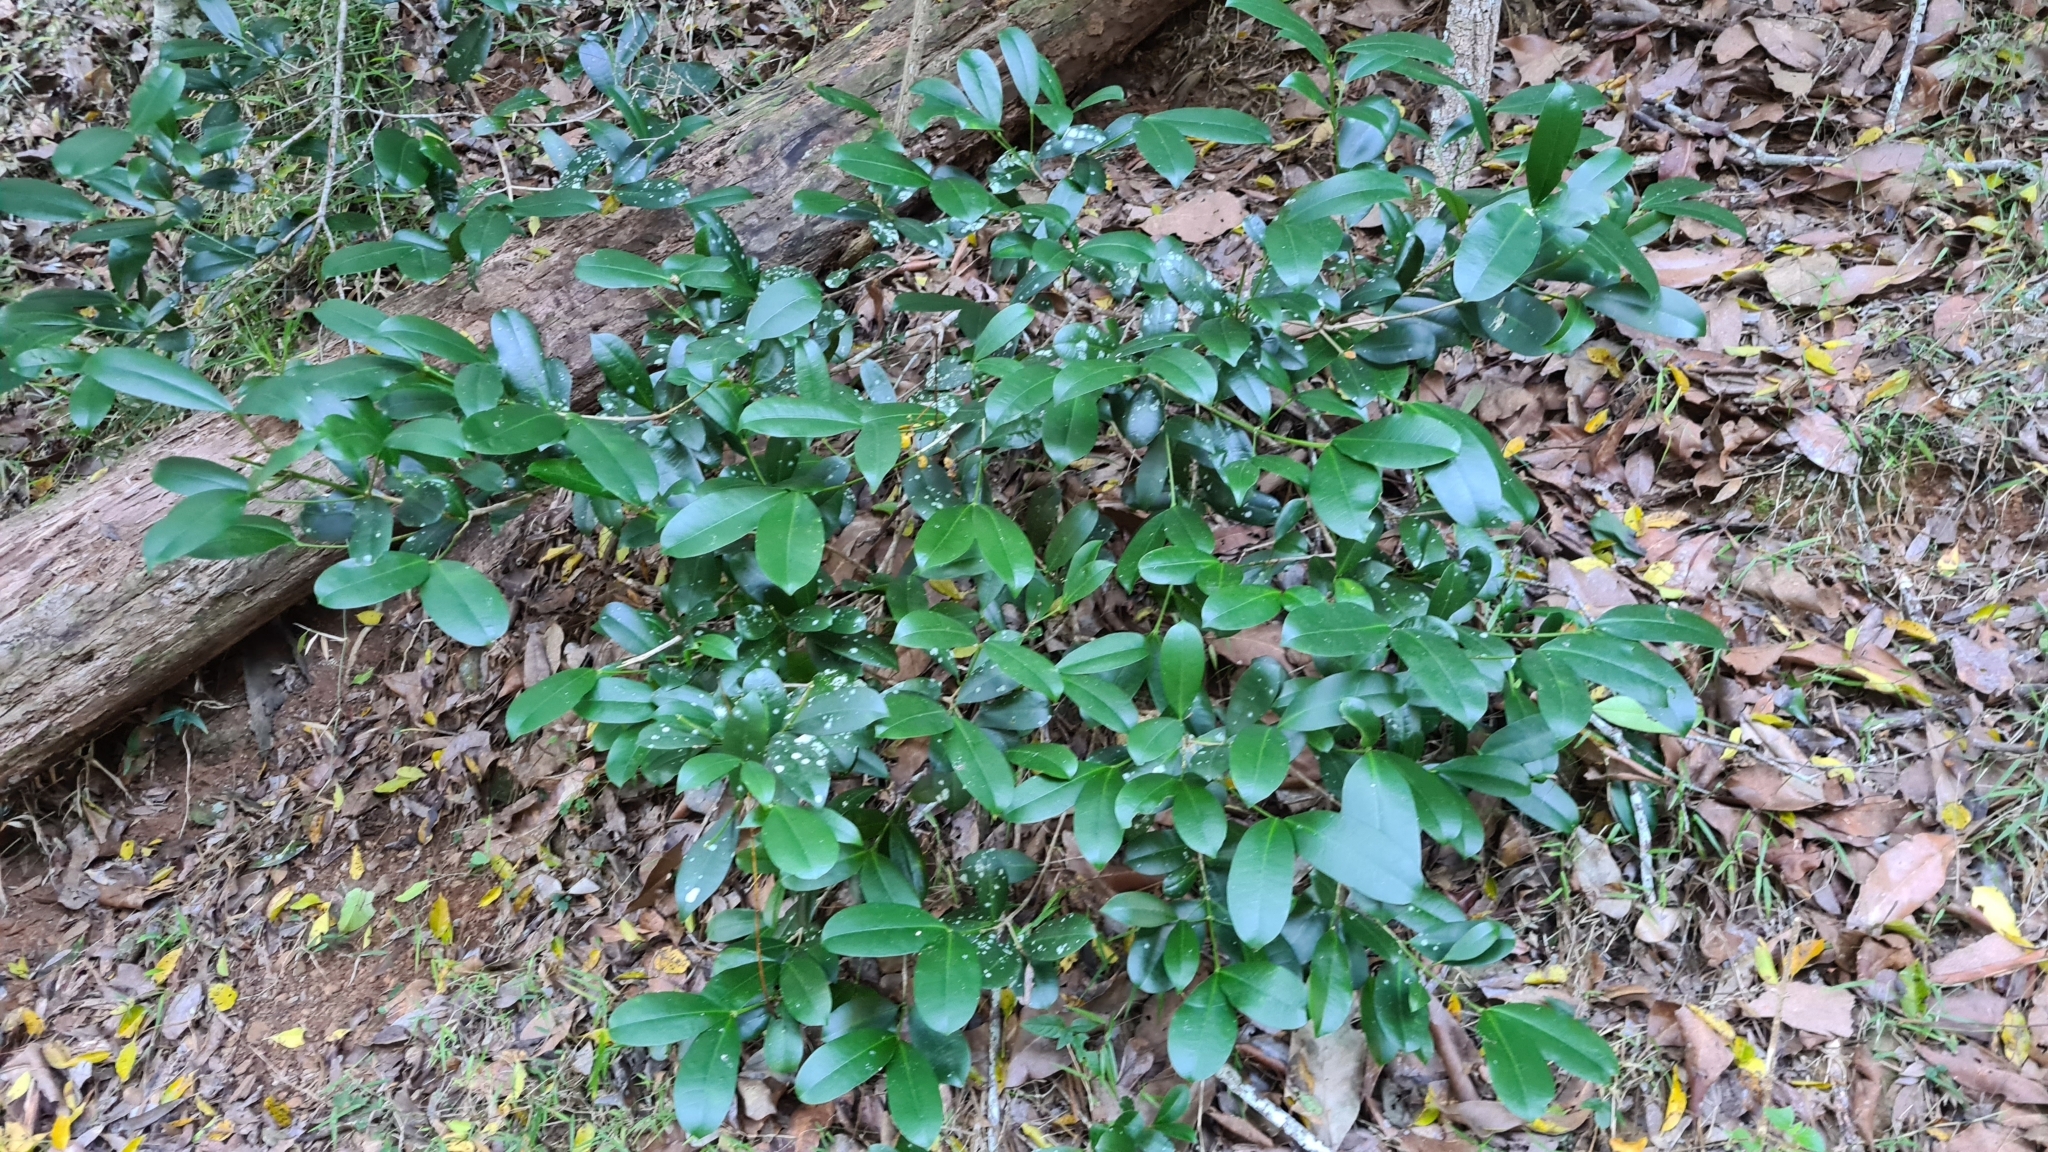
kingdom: Plantae
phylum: Tracheophyta
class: Magnoliopsida
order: Malpighiales
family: Euphorbiaceae
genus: Baloghia
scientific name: Baloghia inophylla
